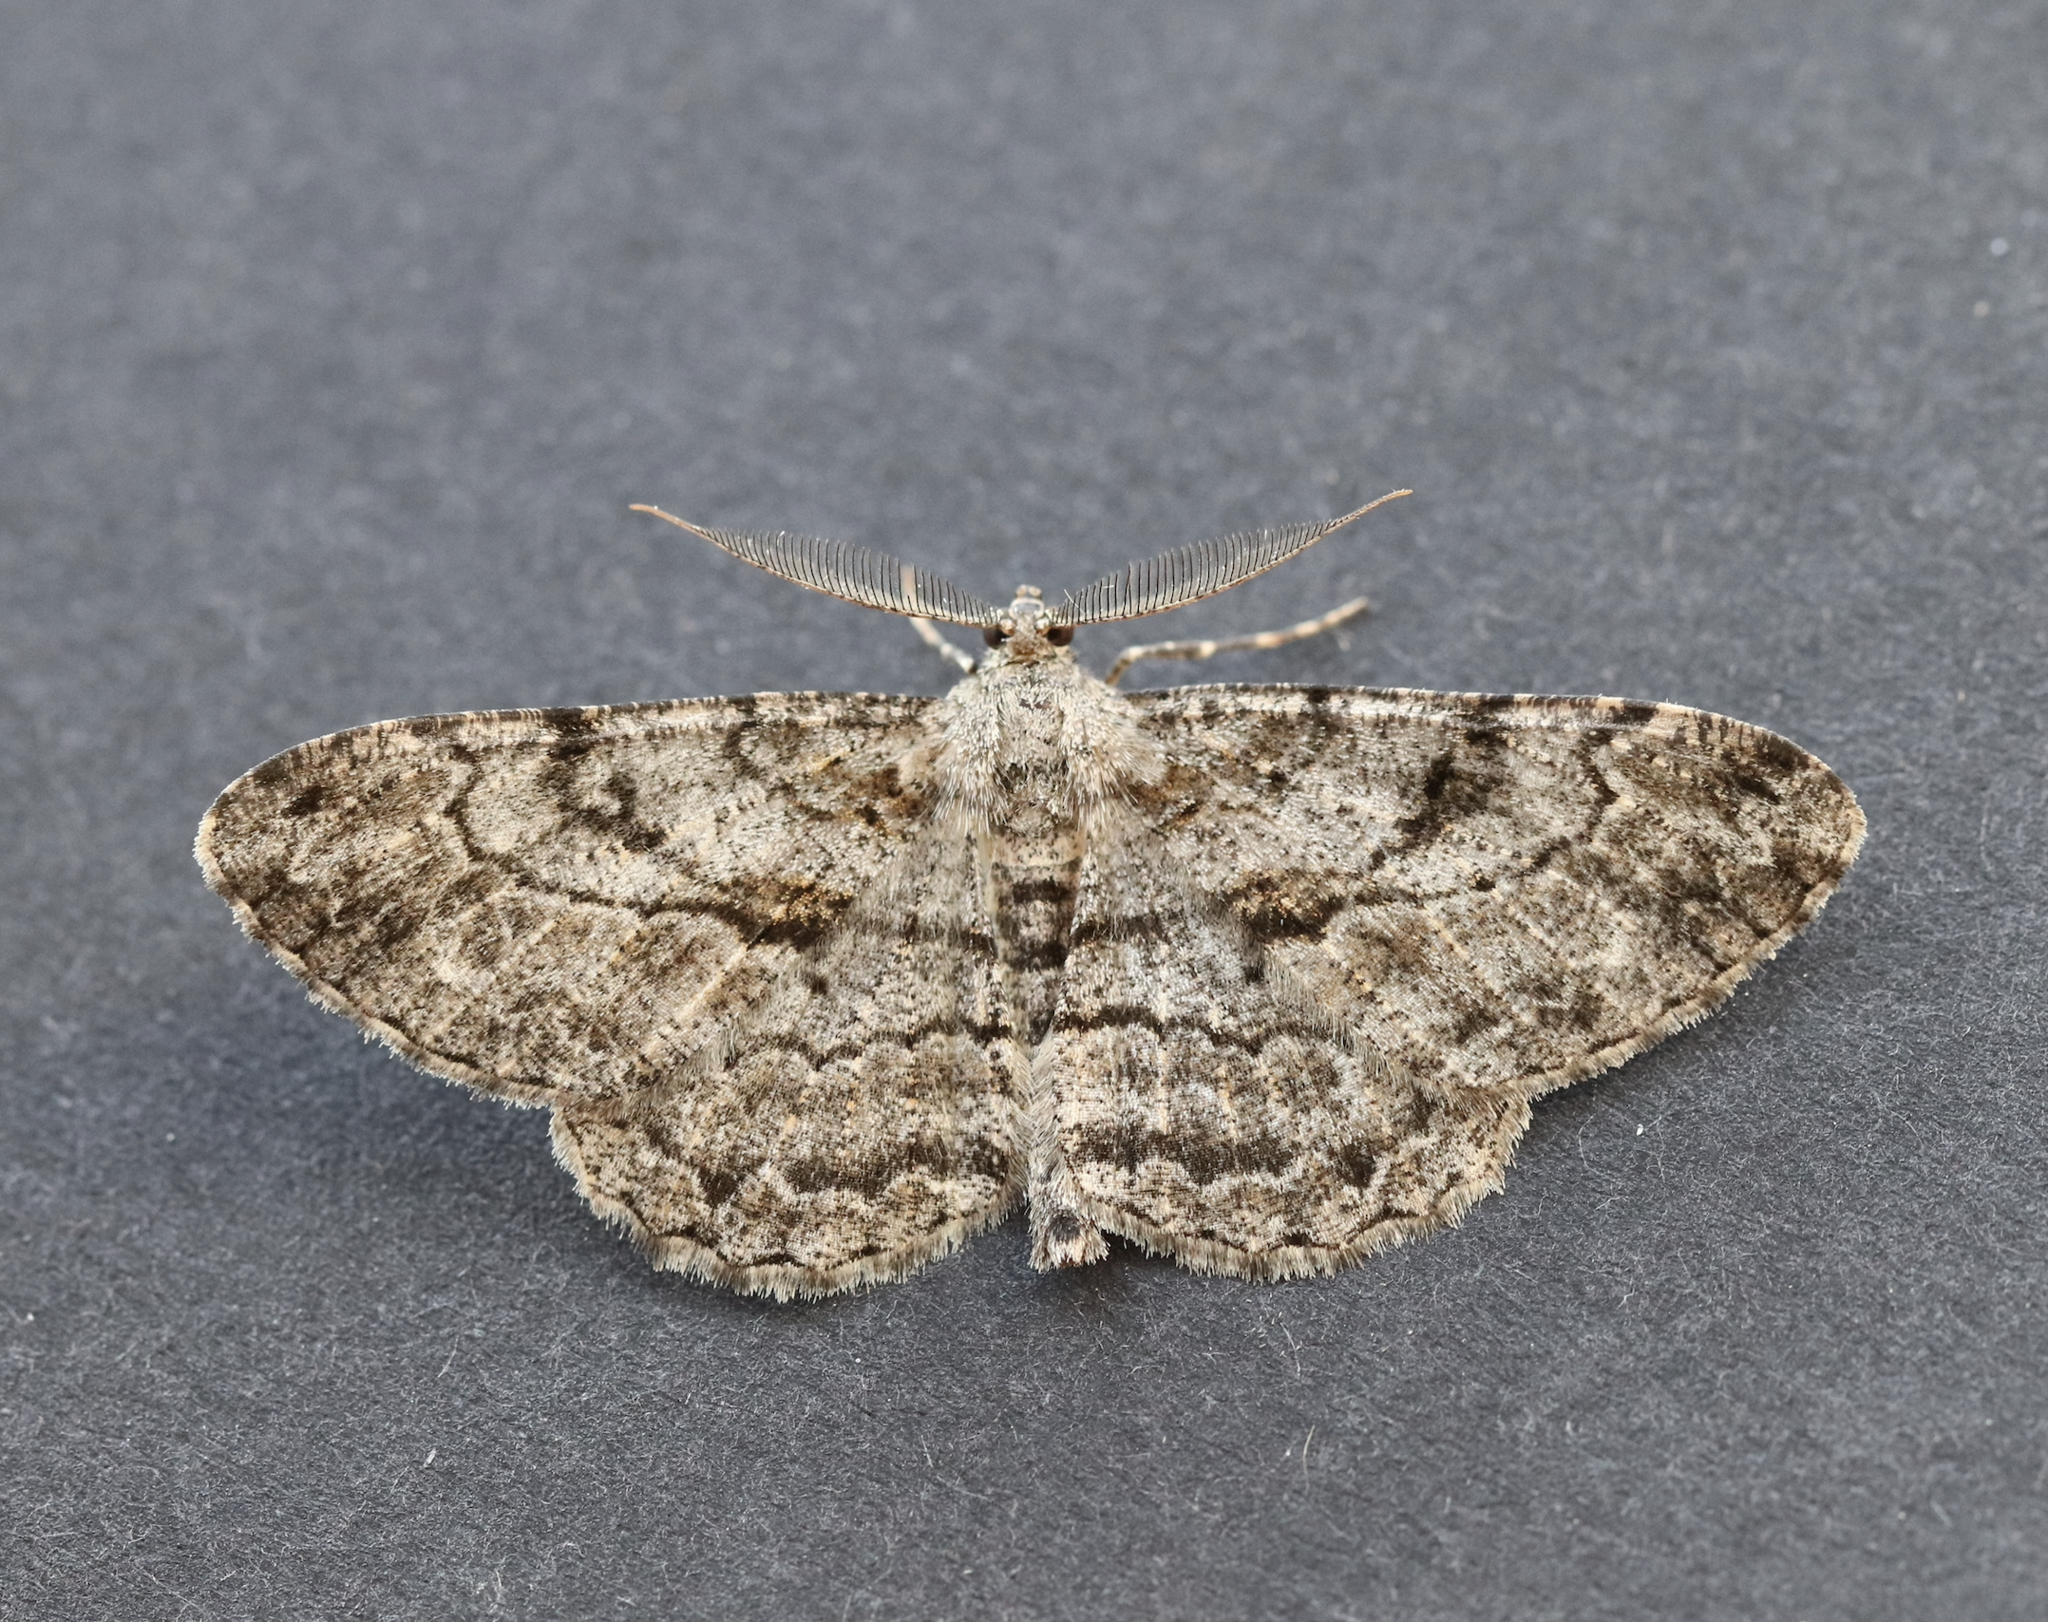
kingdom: Animalia
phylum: Arthropoda
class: Insecta
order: Lepidoptera
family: Geometridae
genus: Peribatodes
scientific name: Peribatodes rhomboidaria
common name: Willow beauty
